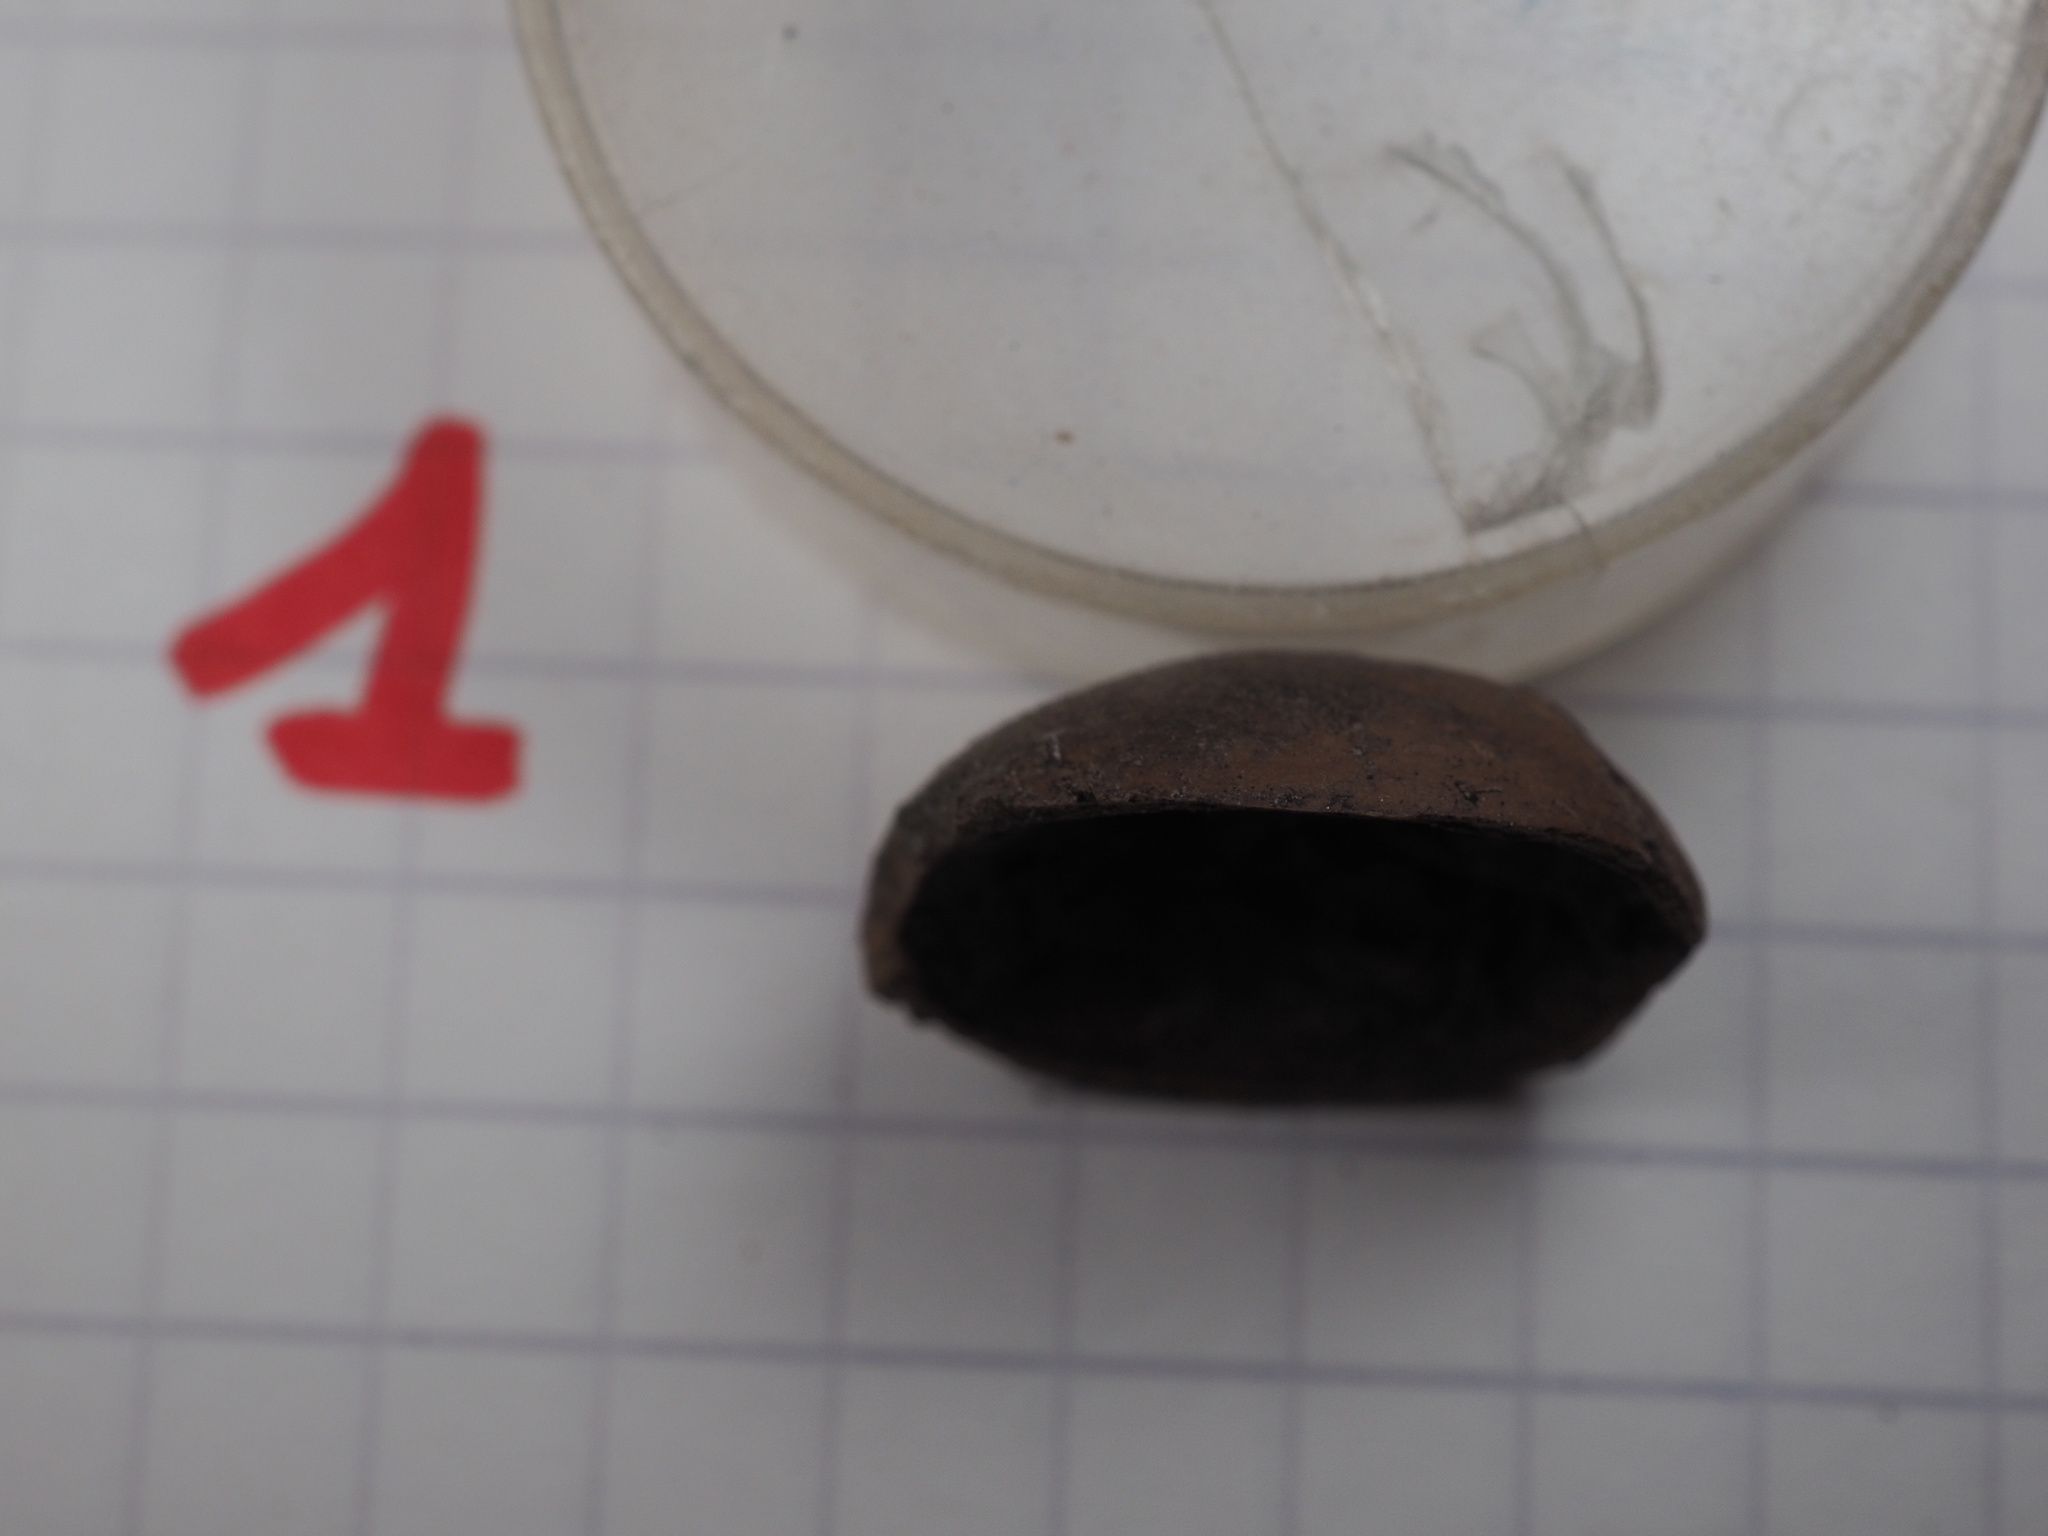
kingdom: Animalia
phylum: Chordata
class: Mammalia
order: Rodentia
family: Sciuridae
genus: Sciurus
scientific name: Sciurus vulgaris
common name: Eurasian red squirrel
